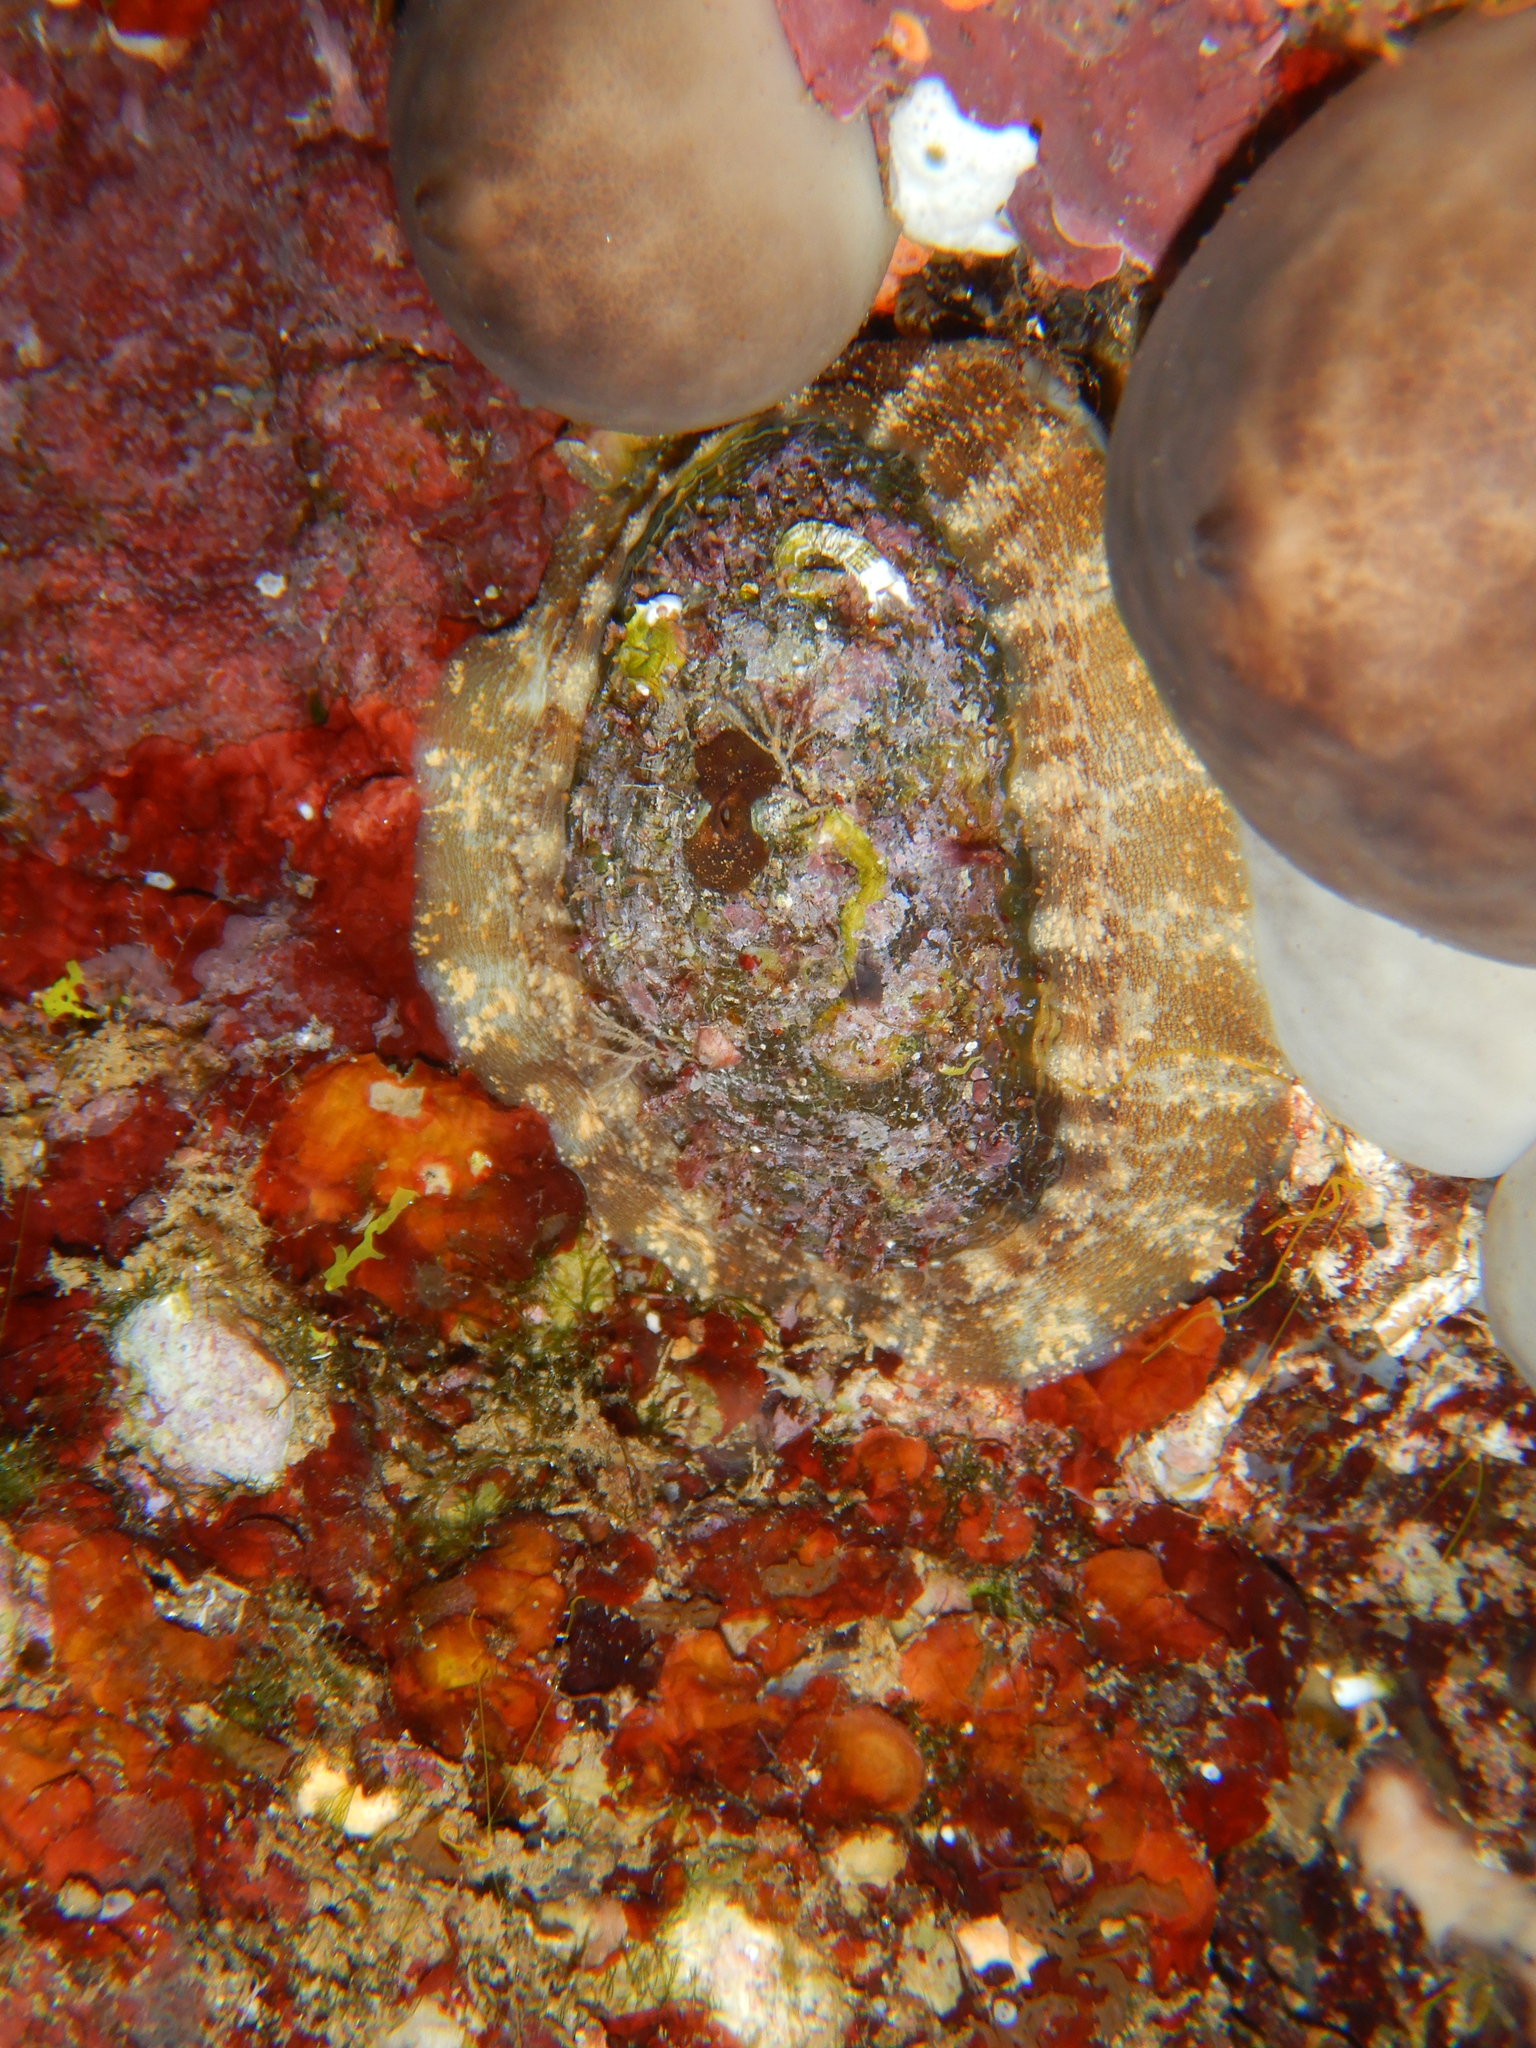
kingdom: Animalia
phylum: Mollusca
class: Gastropoda
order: Lepetellida
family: Haliotidae
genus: Haliotis
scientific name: Haliotis tuberculata
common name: Green ormer
